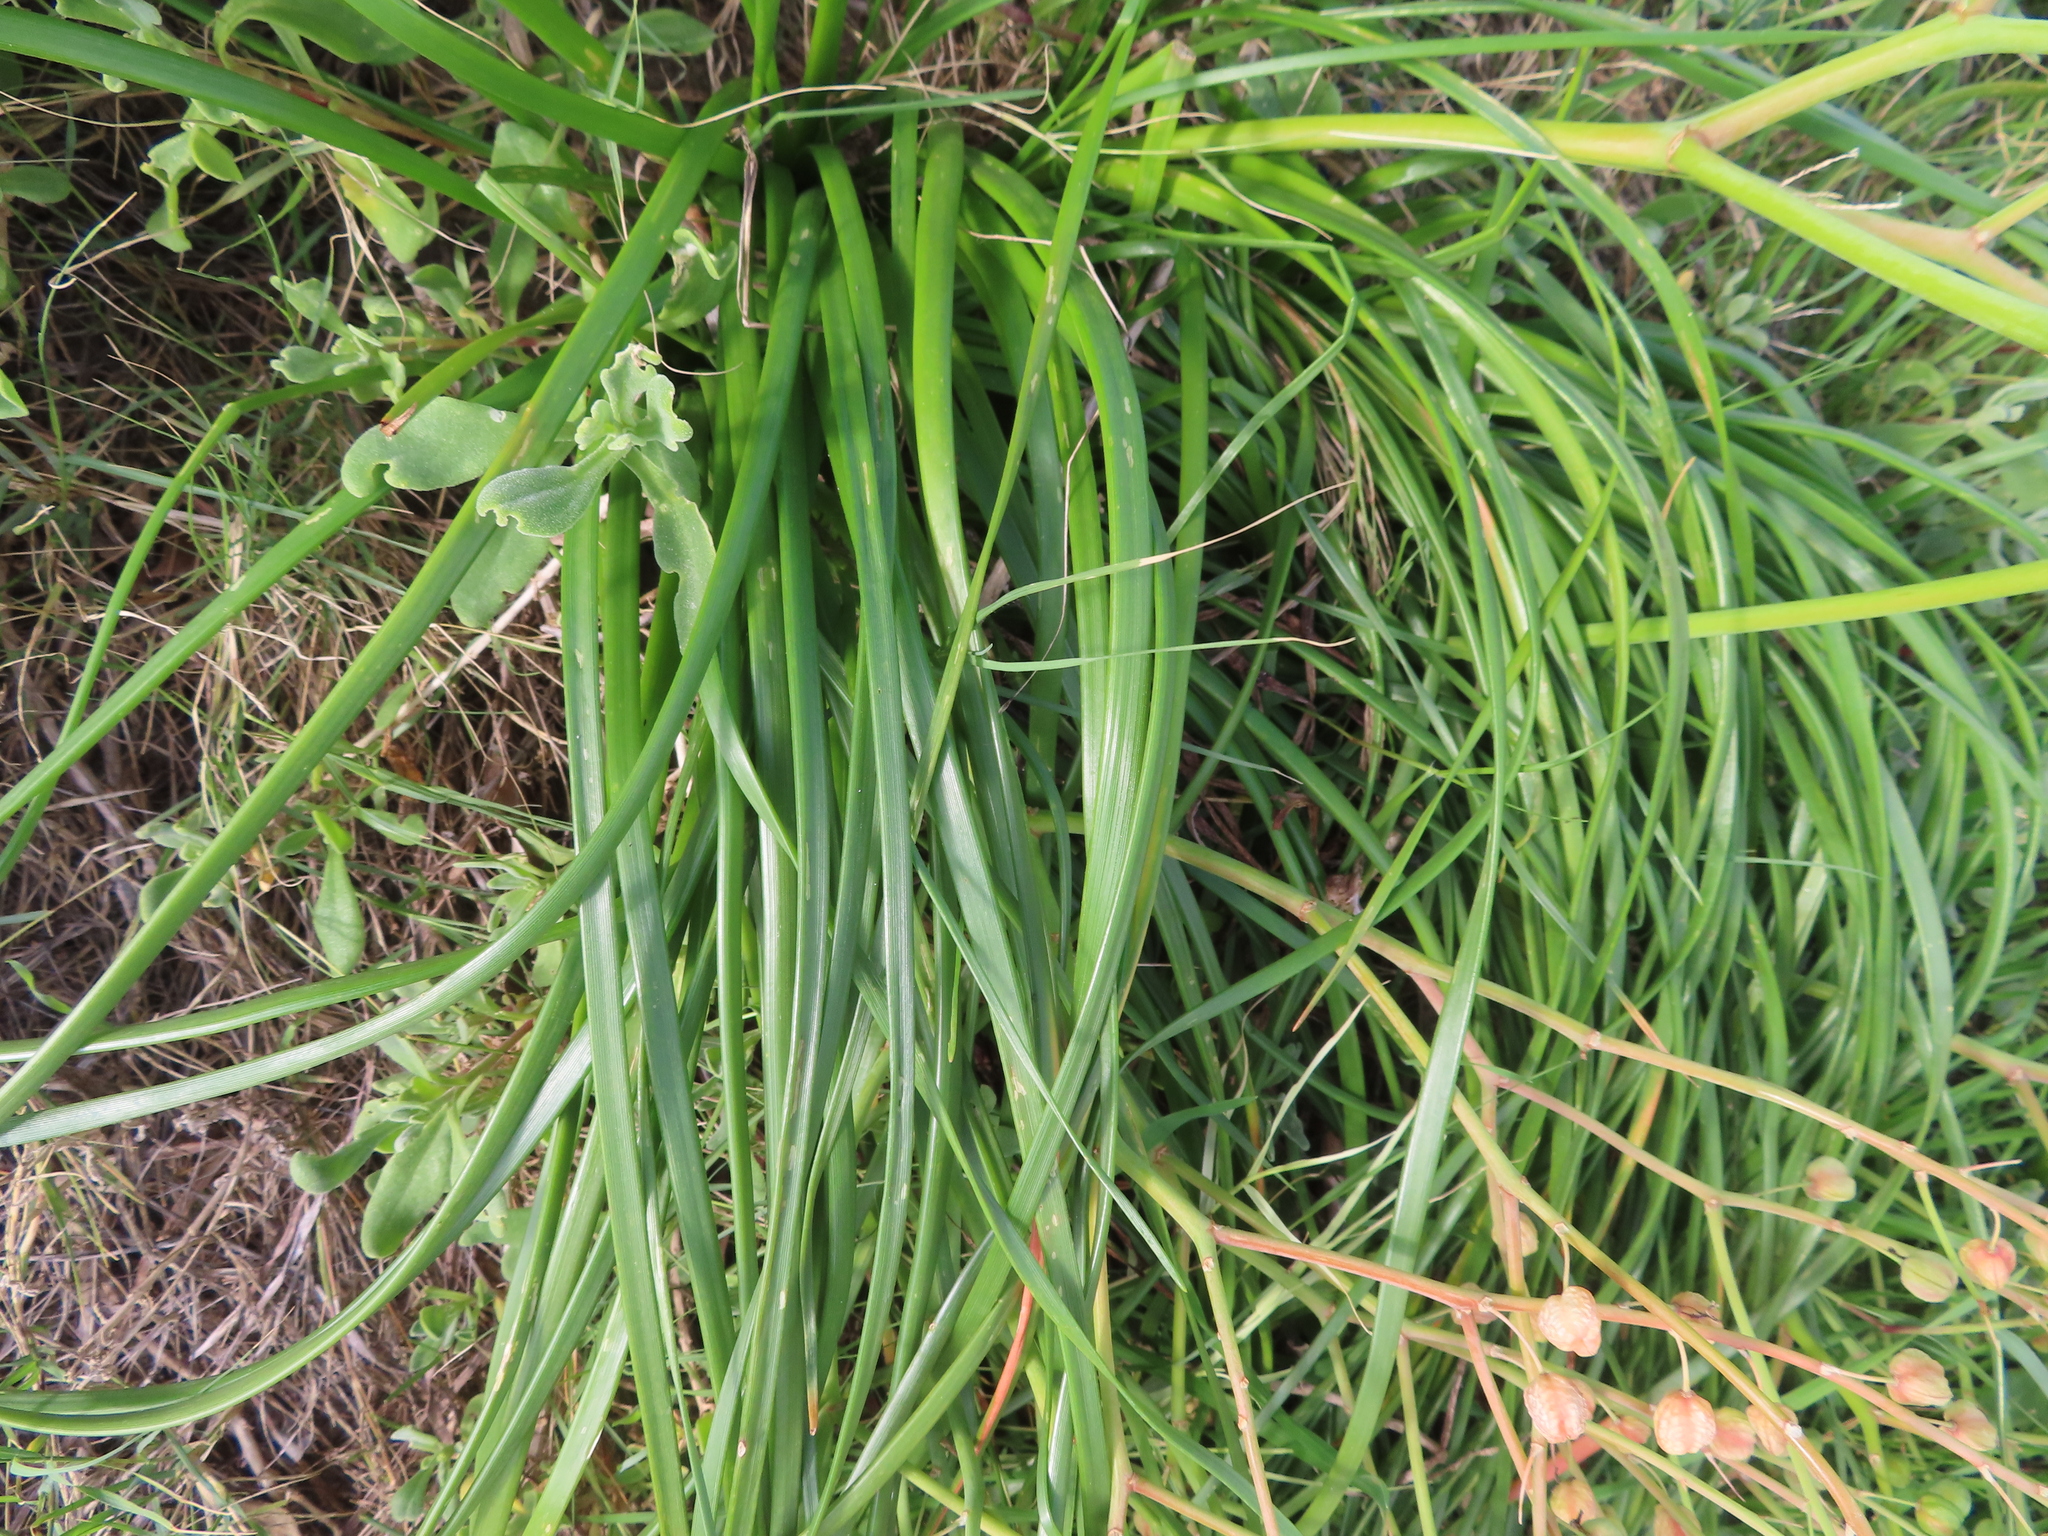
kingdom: Plantae
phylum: Tracheophyta
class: Liliopsida
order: Asparagales
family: Asphodelaceae
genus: Trachyandra
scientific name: Trachyandra divaricata
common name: Dune onionweed
